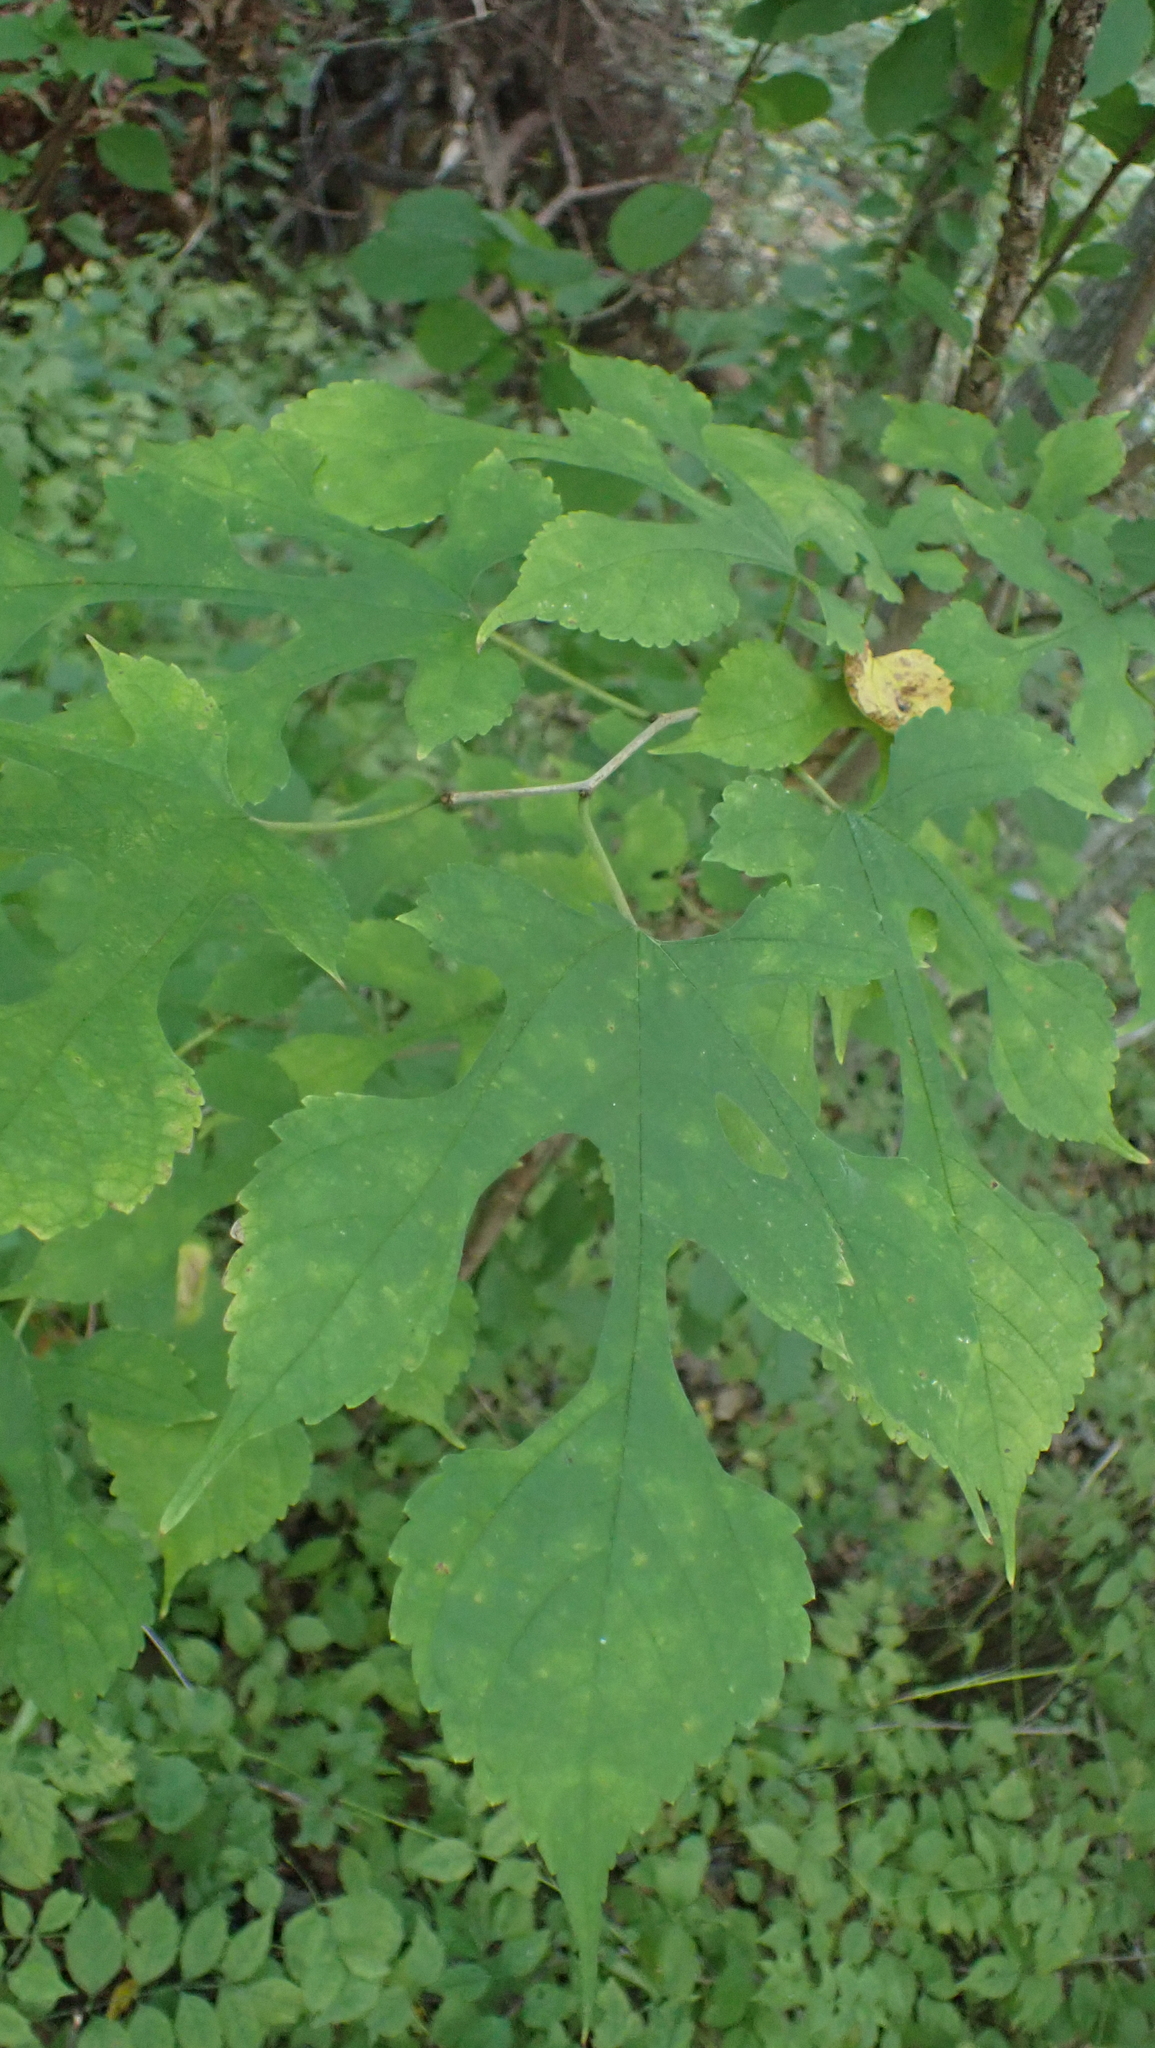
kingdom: Plantae
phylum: Tracheophyta
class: Magnoliopsida
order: Rosales
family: Moraceae
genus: Morus
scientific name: Morus rubra
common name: Red mulberry
